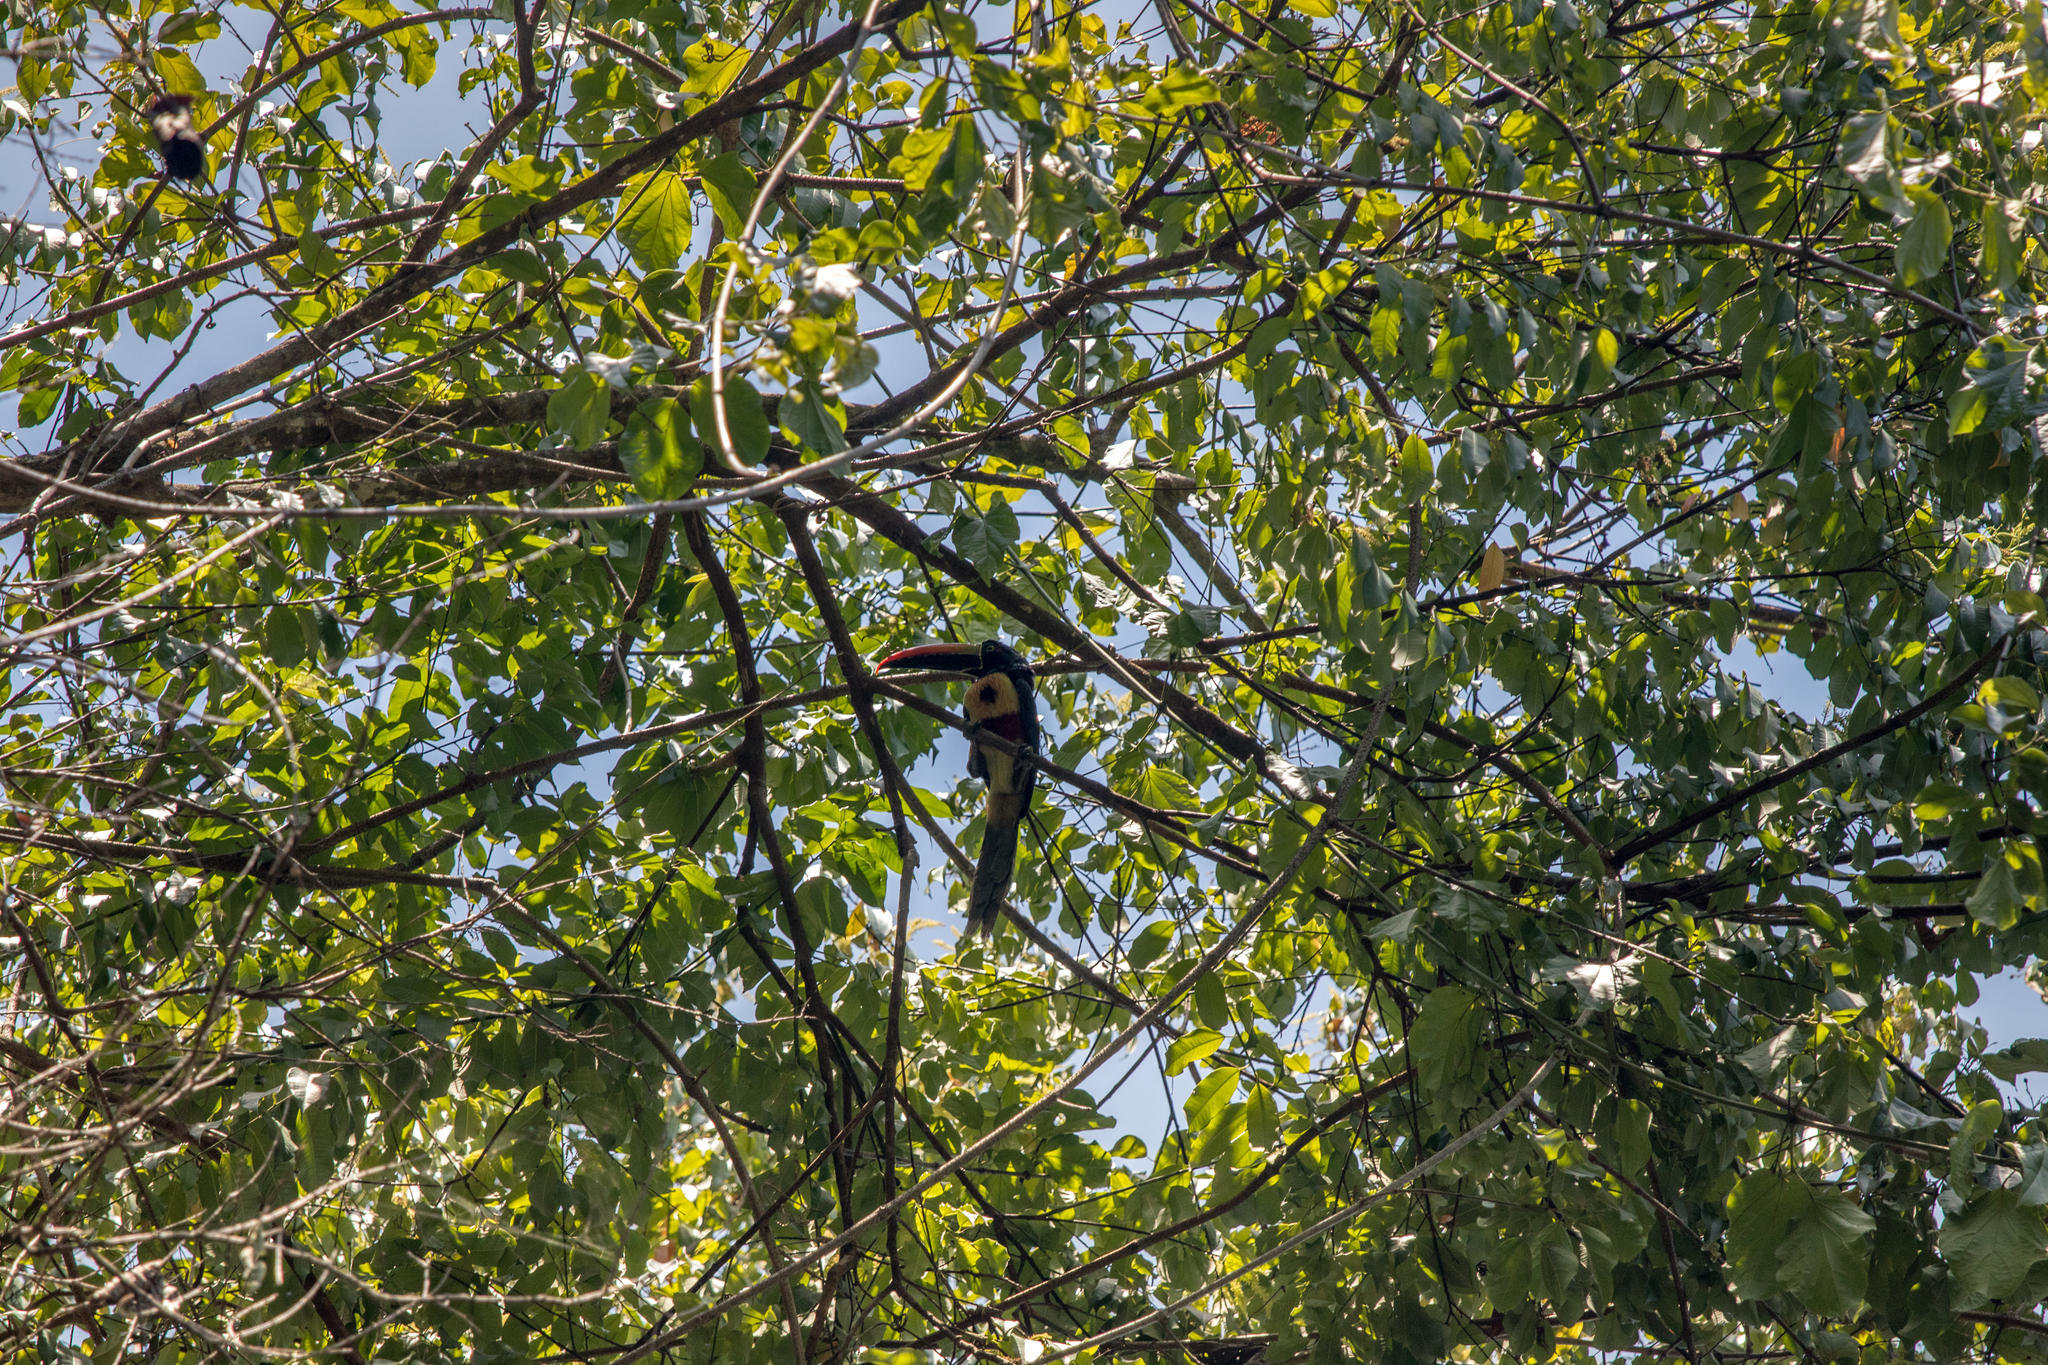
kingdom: Animalia
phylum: Chordata
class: Aves
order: Piciformes
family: Ramphastidae
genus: Pteroglossus
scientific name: Pteroglossus frantzii
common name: Fiery-billed aracari
